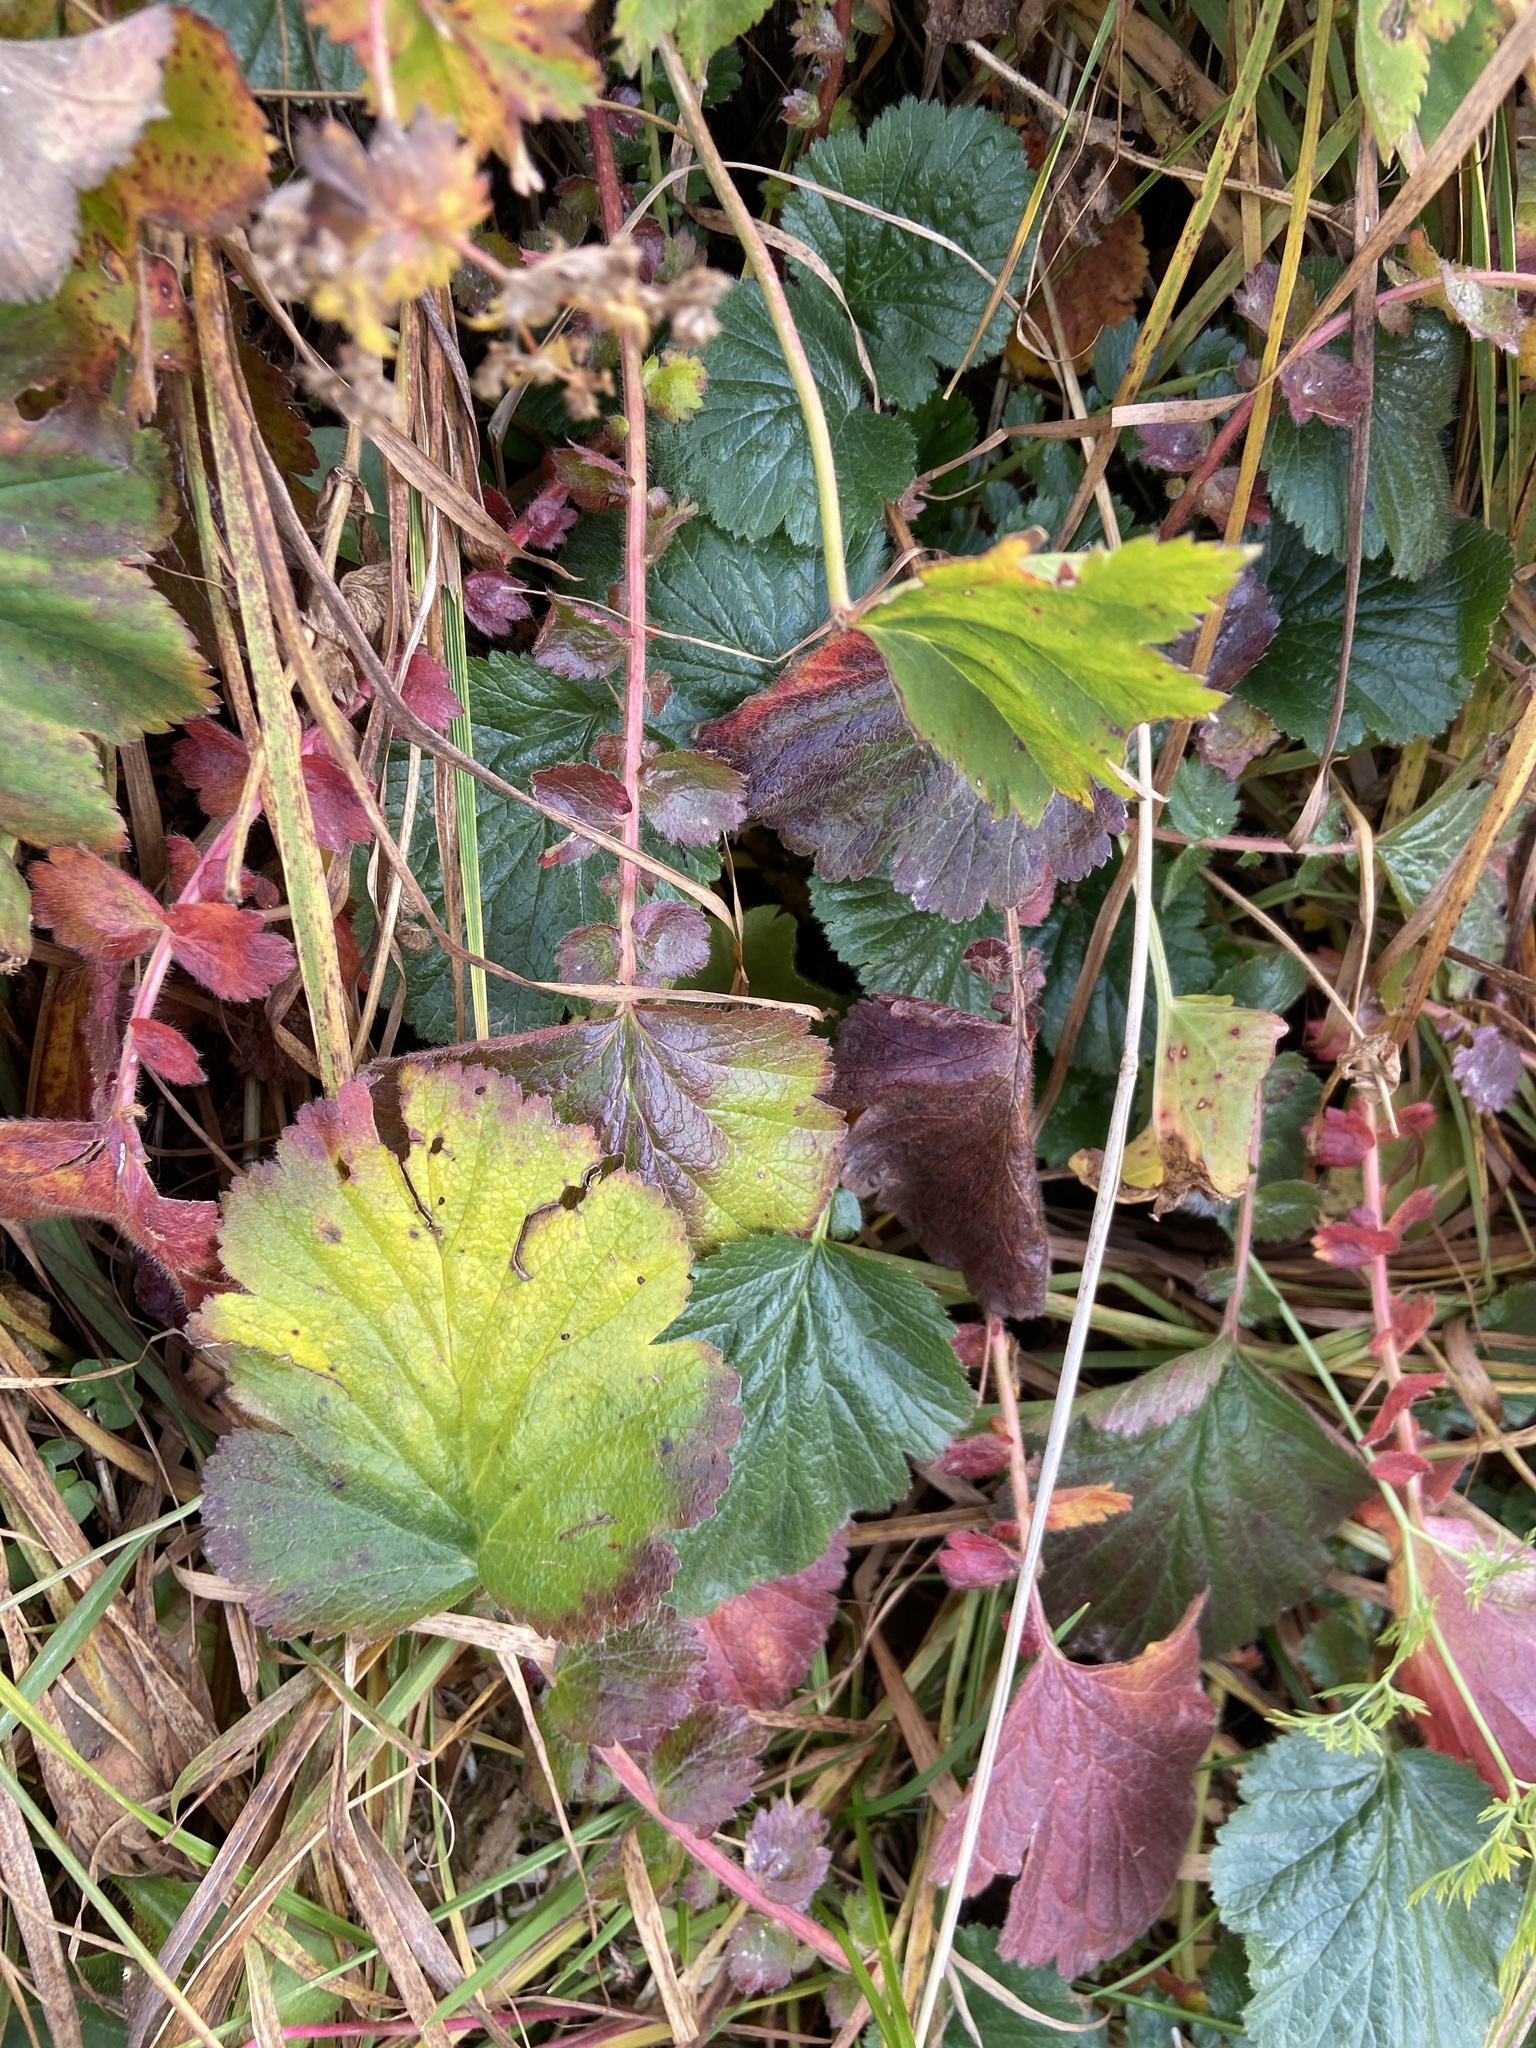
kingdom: Plantae
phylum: Tracheophyta
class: Magnoliopsida
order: Rosales
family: Rosaceae
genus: Geum
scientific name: Geum montanum
